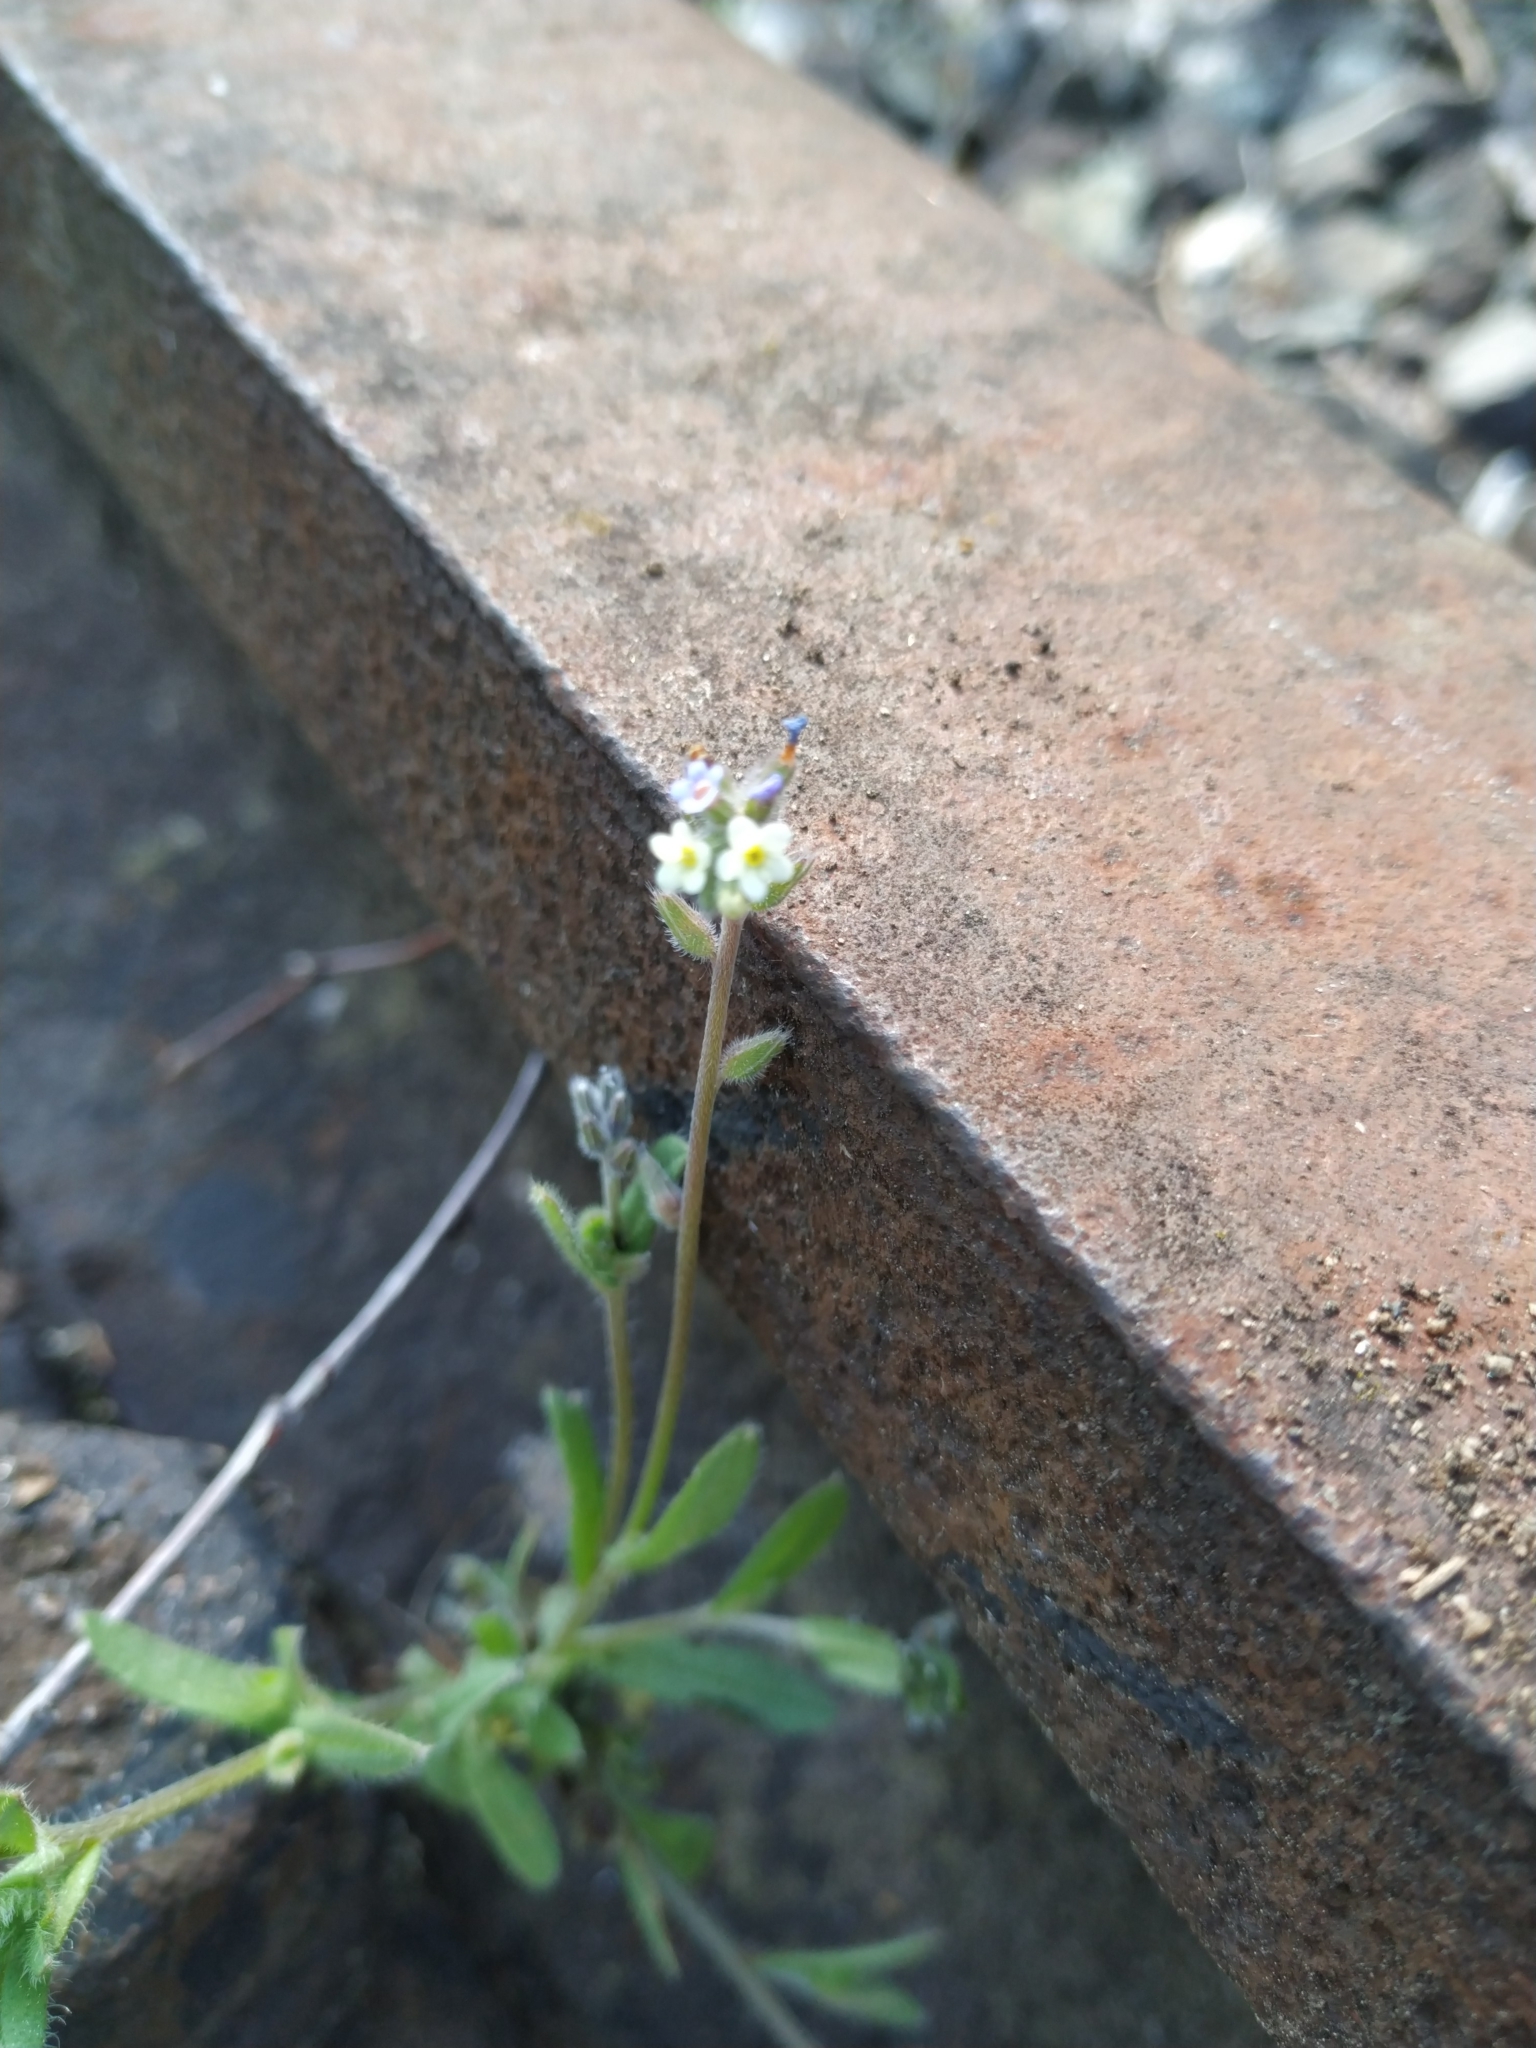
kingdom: Plantae
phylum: Tracheophyta
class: Magnoliopsida
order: Boraginales
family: Boraginaceae
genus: Myosotis
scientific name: Myosotis discolor
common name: Changing forget-me-not
